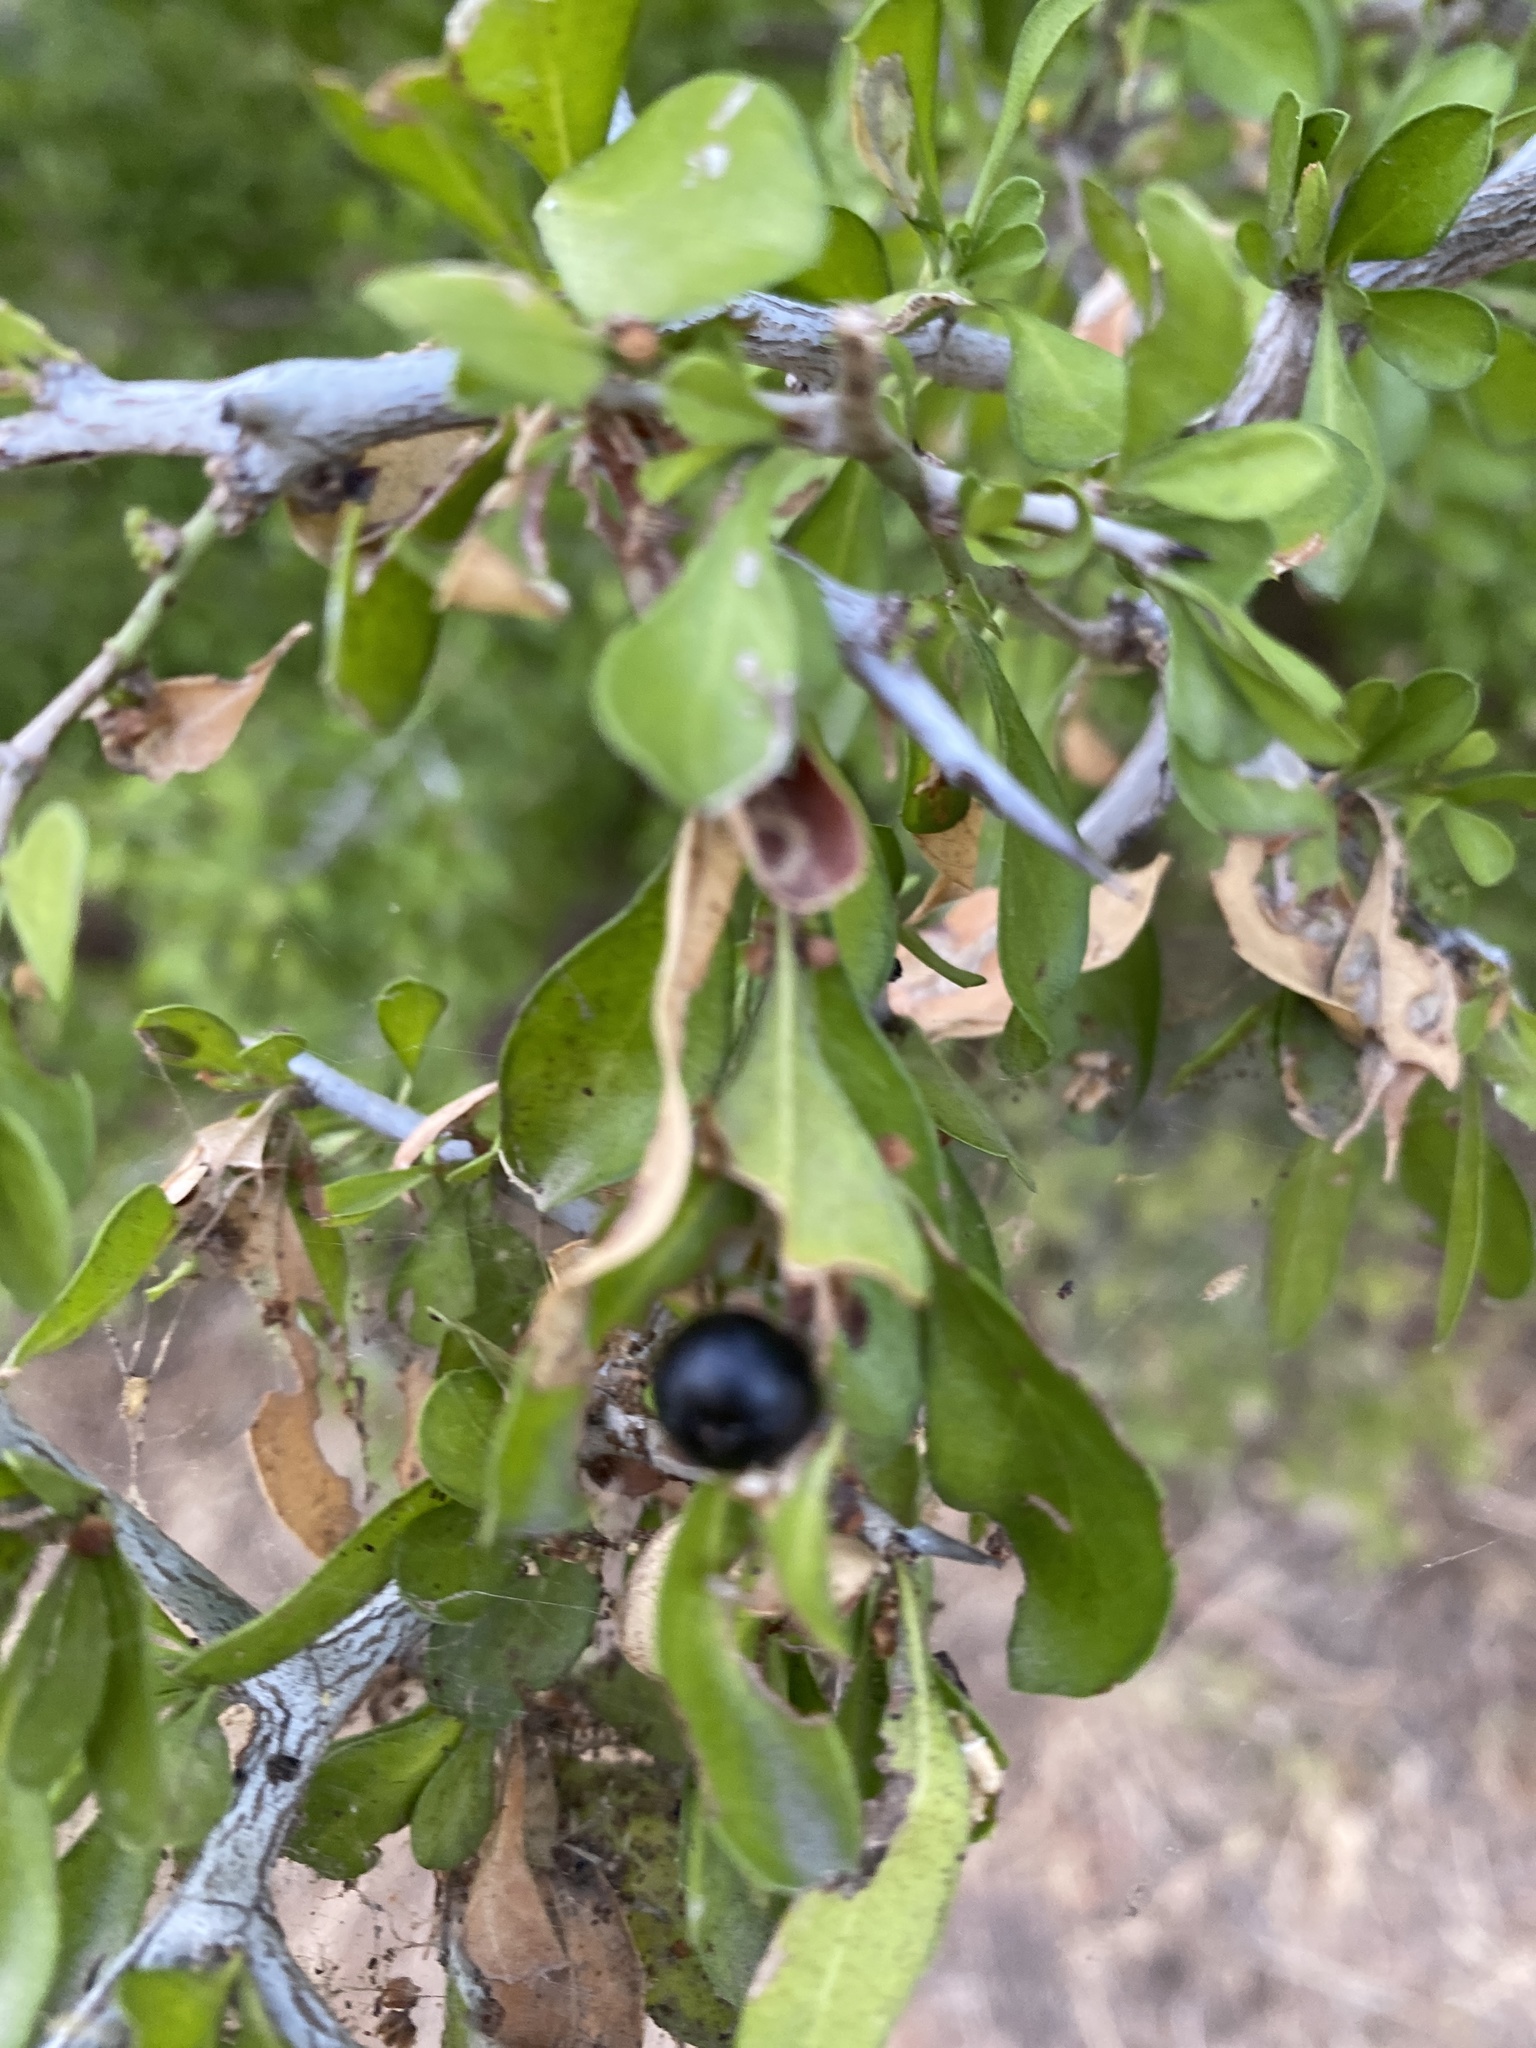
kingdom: Plantae
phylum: Tracheophyta
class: Magnoliopsida
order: Rosales
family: Rhamnaceae
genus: Condalia
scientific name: Condalia hookeri
